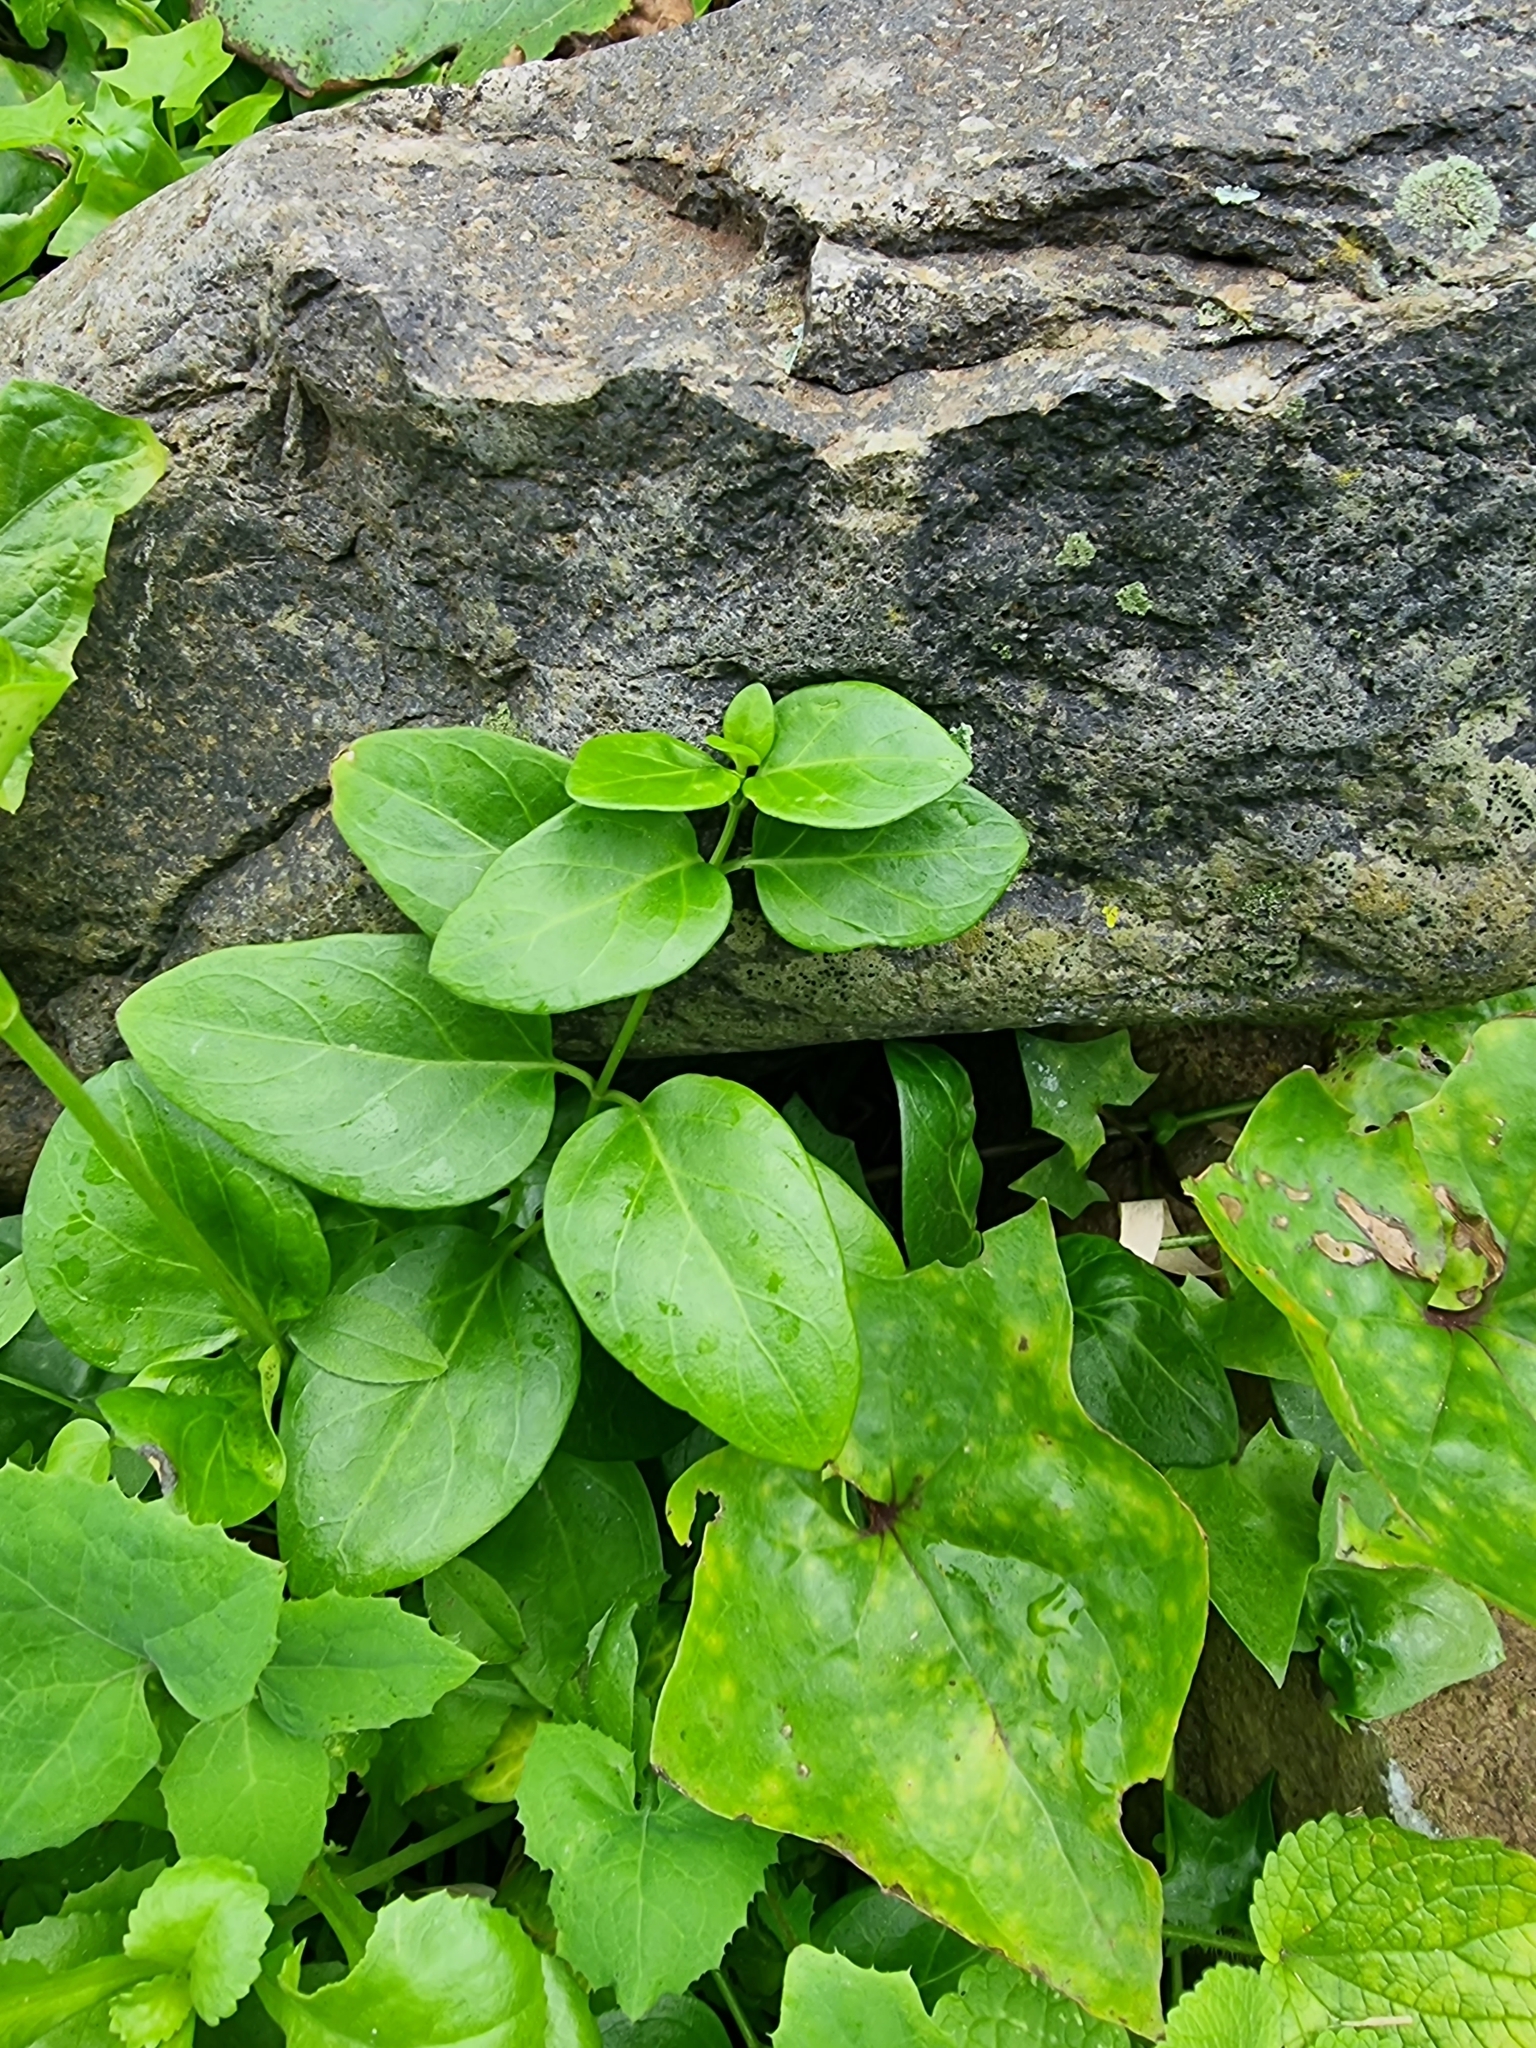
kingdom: Plantae
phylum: Tracheophyta
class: Magnoliopsida
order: Gentianales
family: Apocynaceae
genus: Vinca
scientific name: Vinca major
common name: Greater periwinkle
